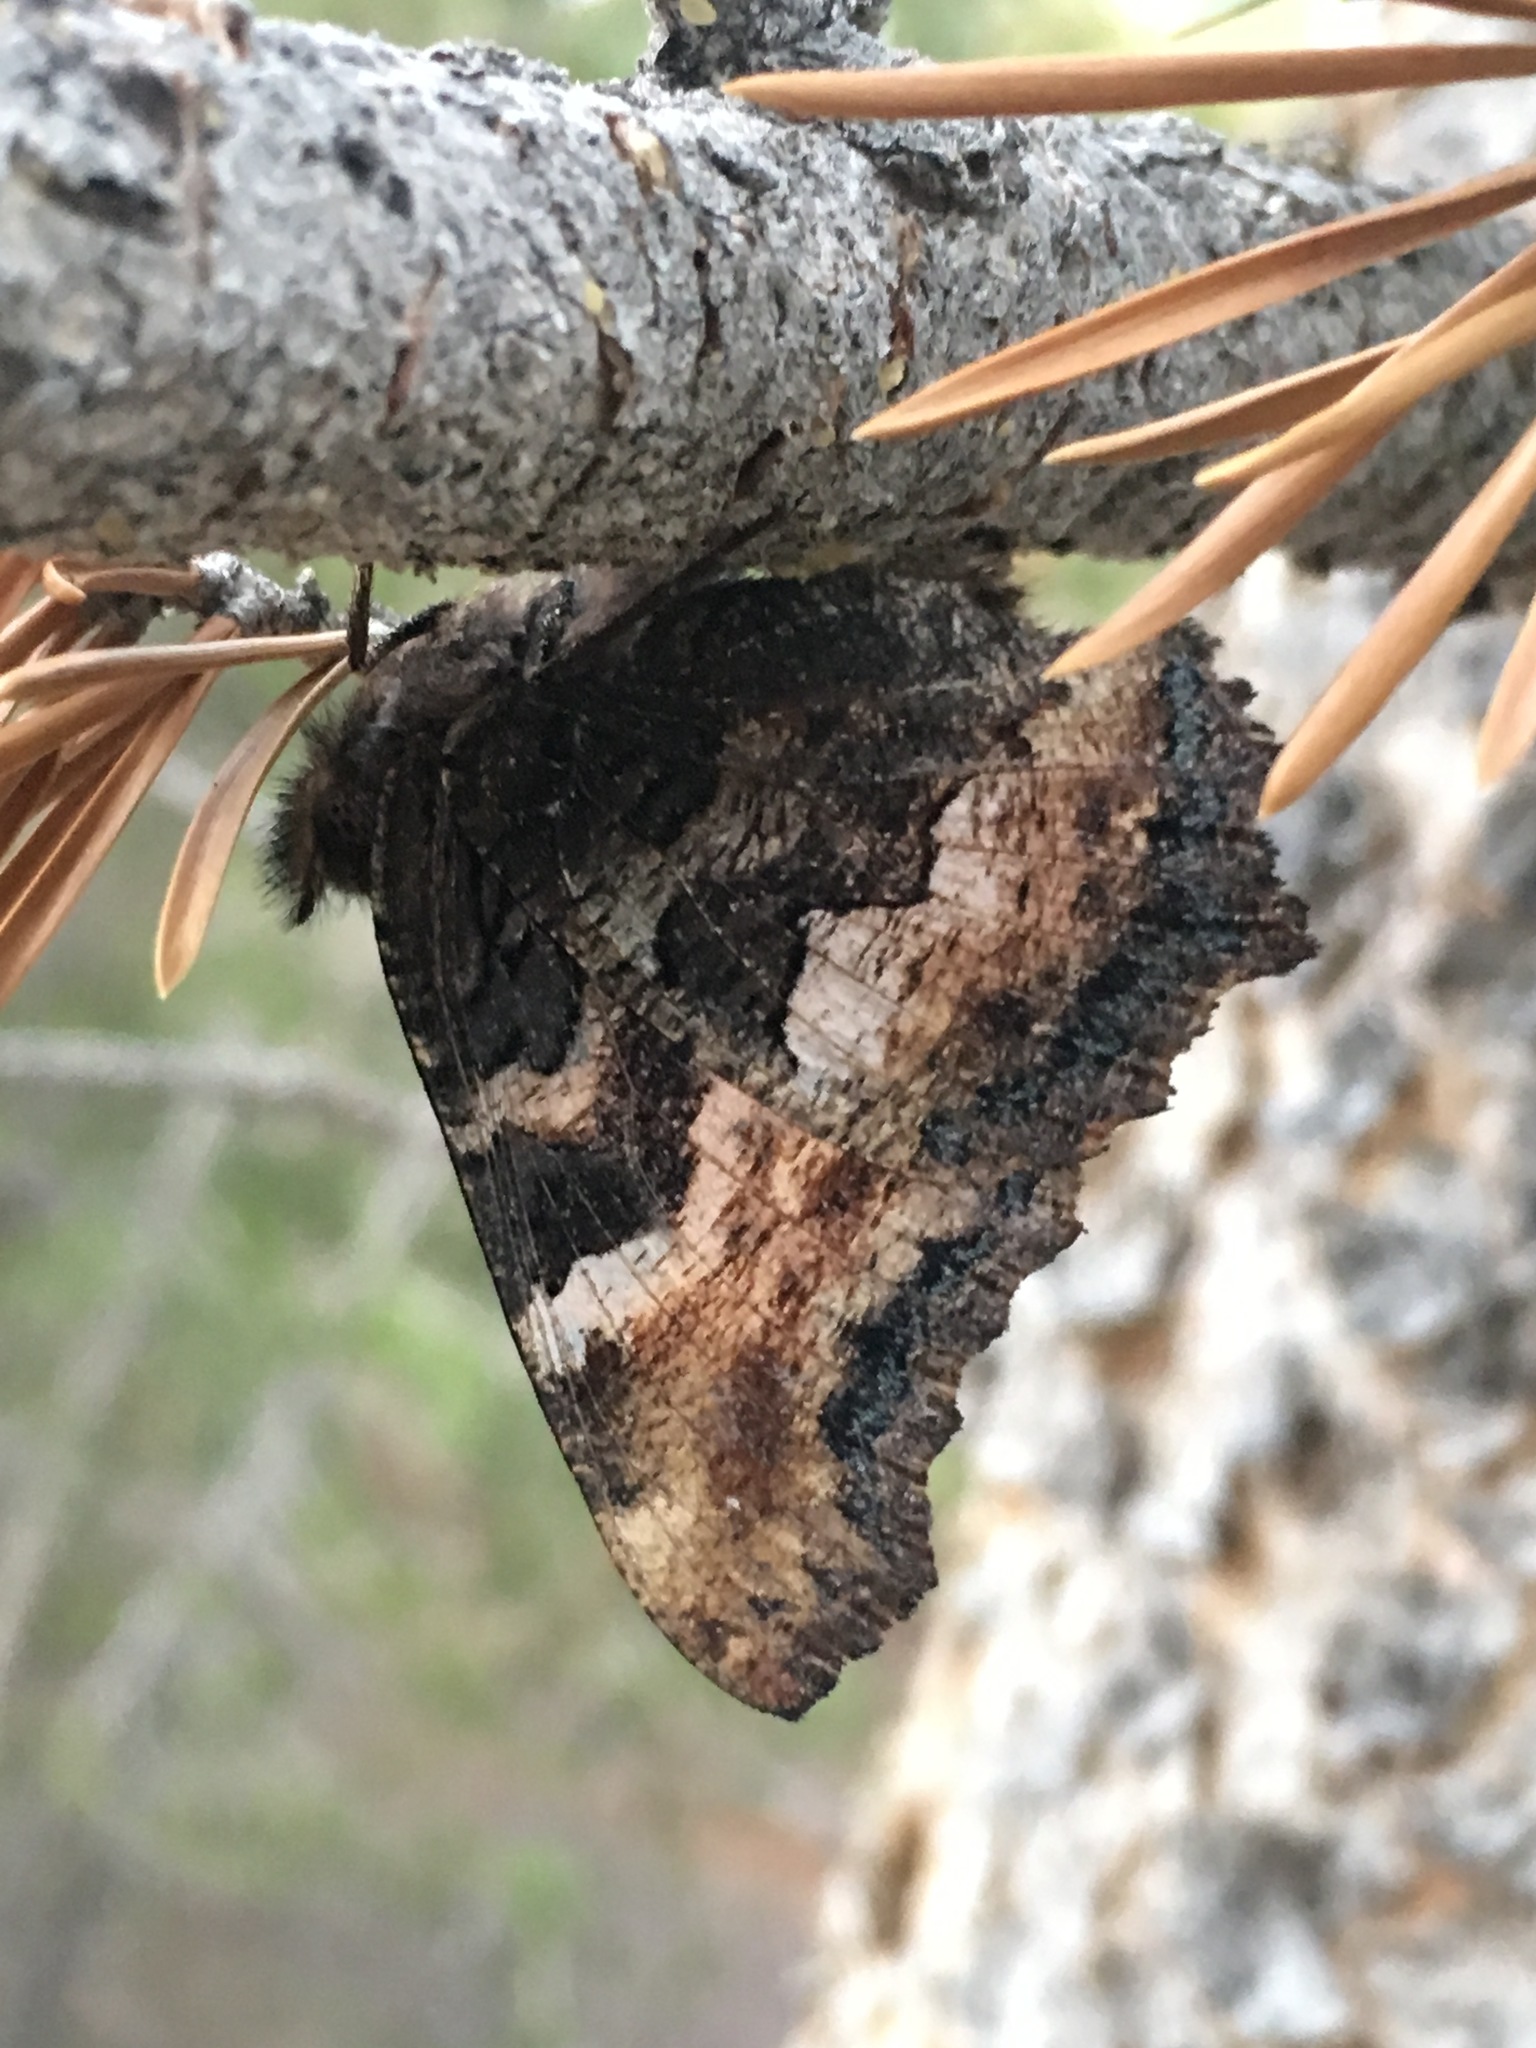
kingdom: Animalia
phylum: Arthropoda
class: Insecta
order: Lepidoptera
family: Nymphalidae
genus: Nymphalis
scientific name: Nymphalis californica
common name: California tortoiseshell
